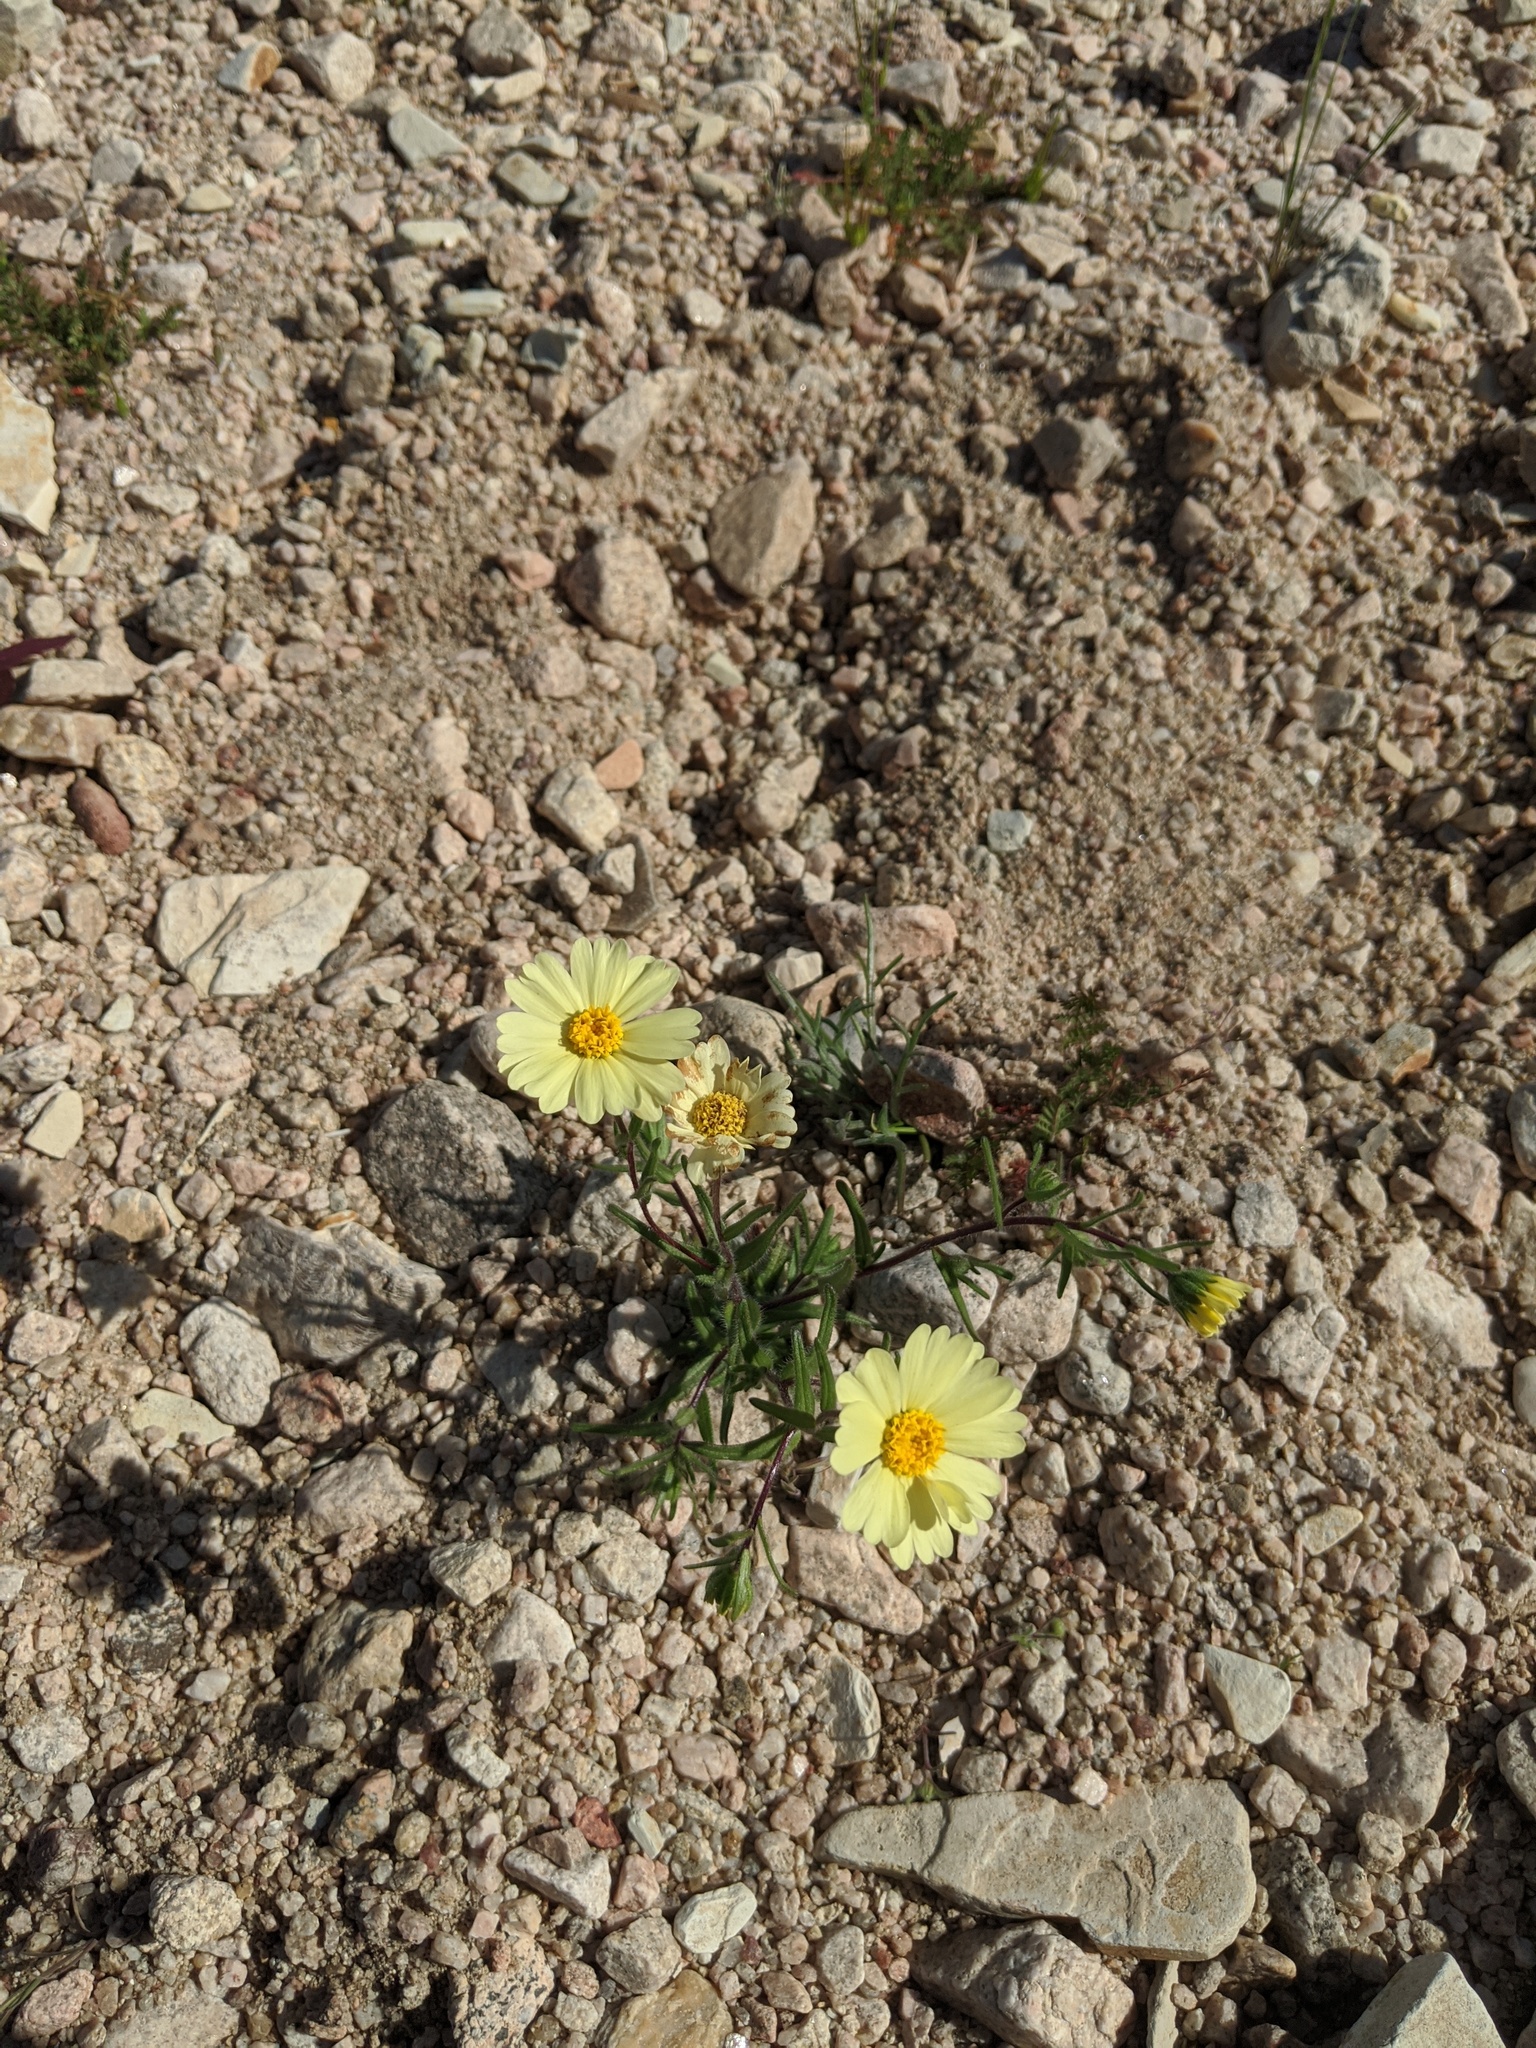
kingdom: Plantae
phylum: Tracheophyta
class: Magnoliopsida
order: Asterales
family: Asteraceae
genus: Layia
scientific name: Layia glandulosa
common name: White layia
